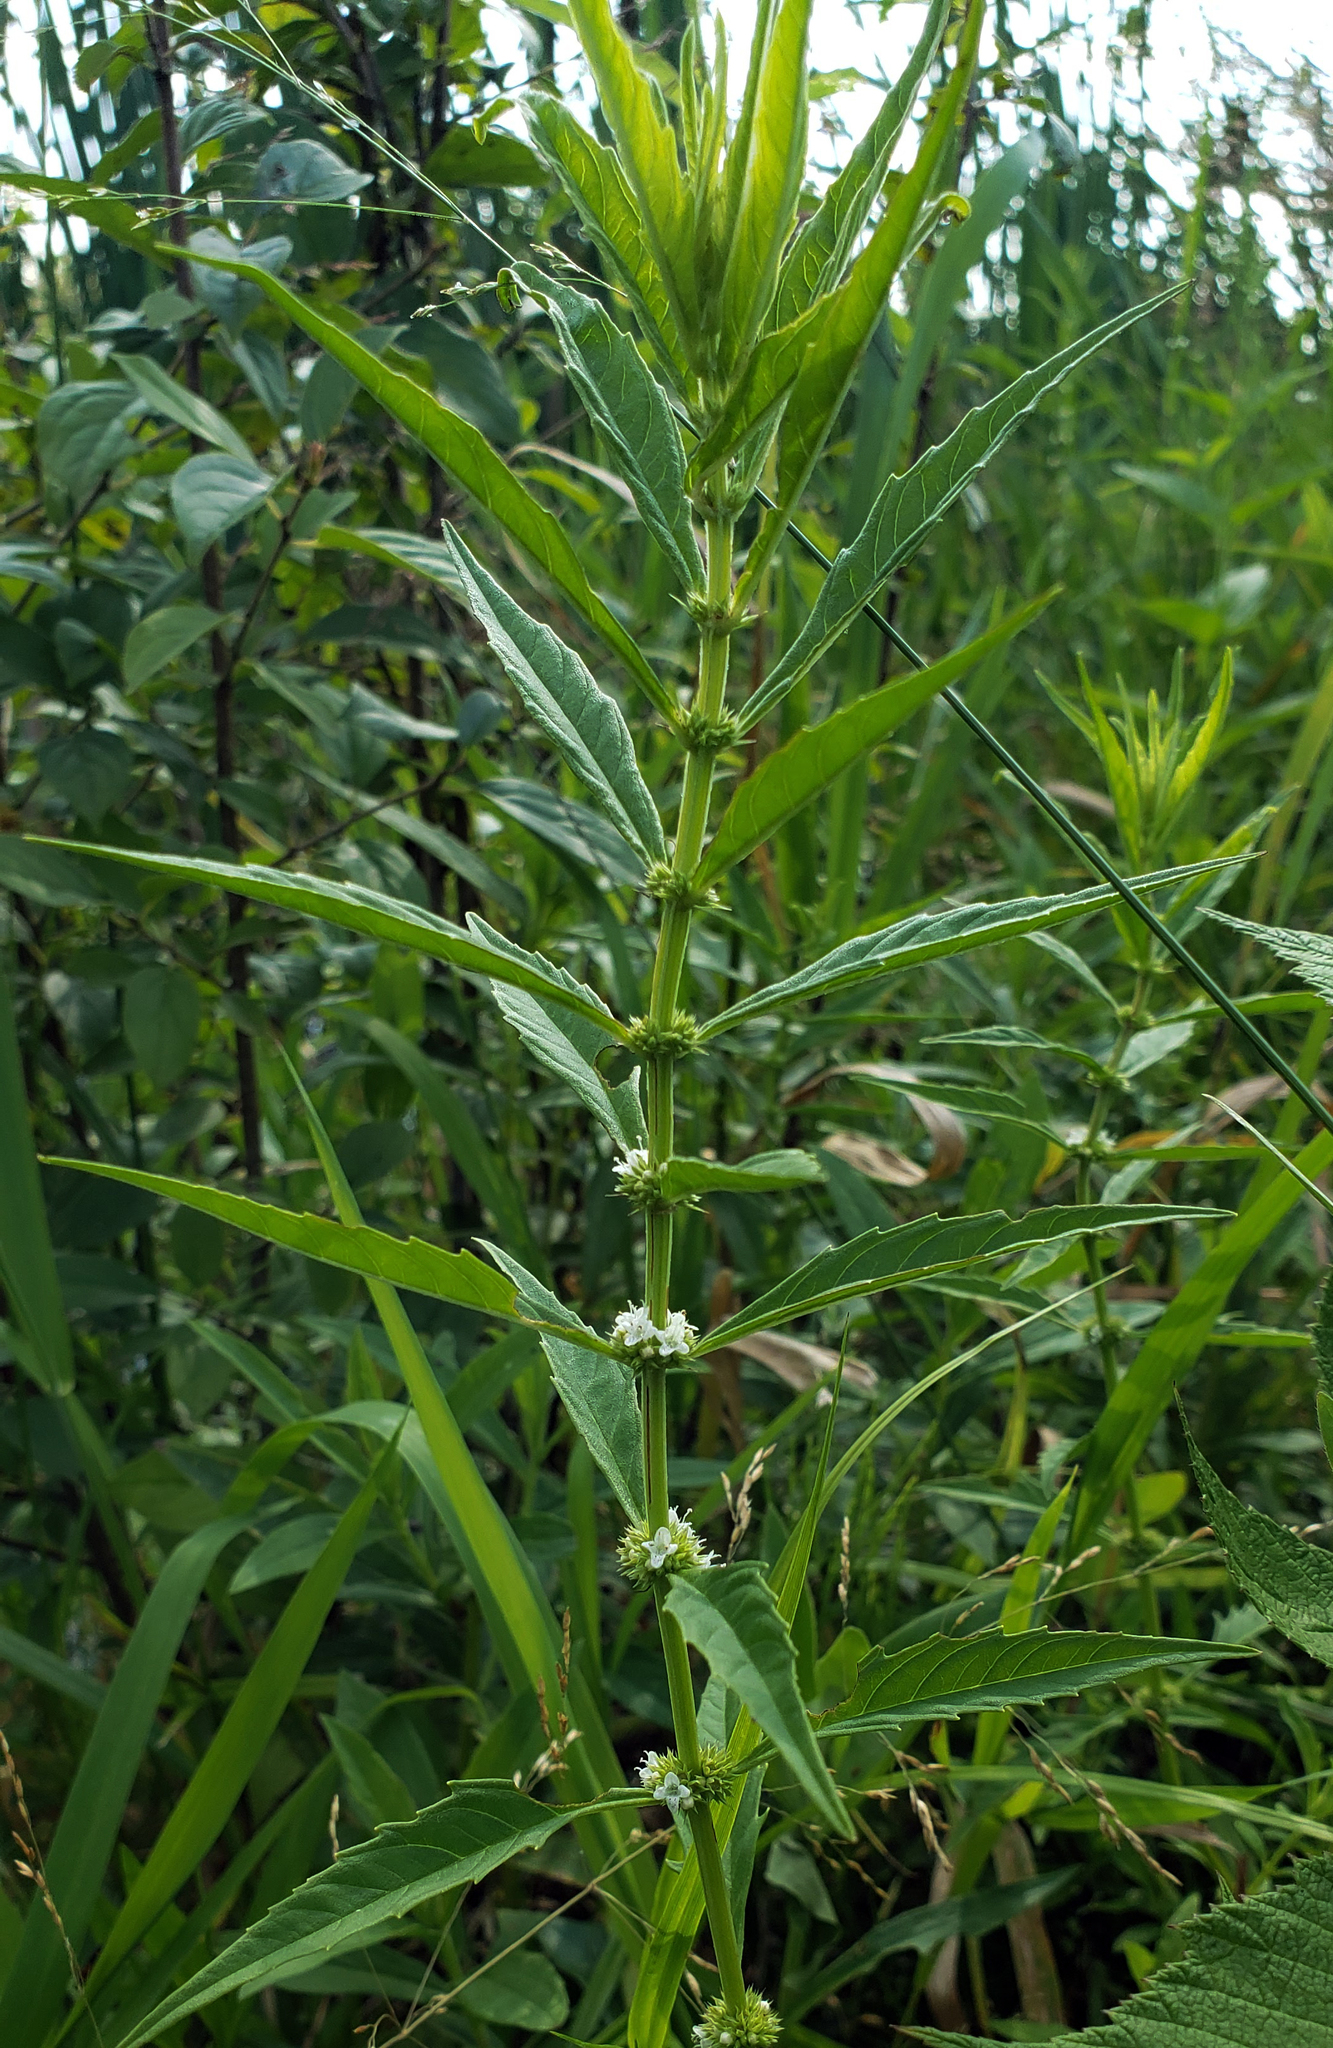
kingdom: Plantae
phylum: Tracheophyta
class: Magnoliopsida
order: Lamiales
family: Lamiaceae
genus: Lycopus
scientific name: Lycopus americanus
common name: American bugleweed
